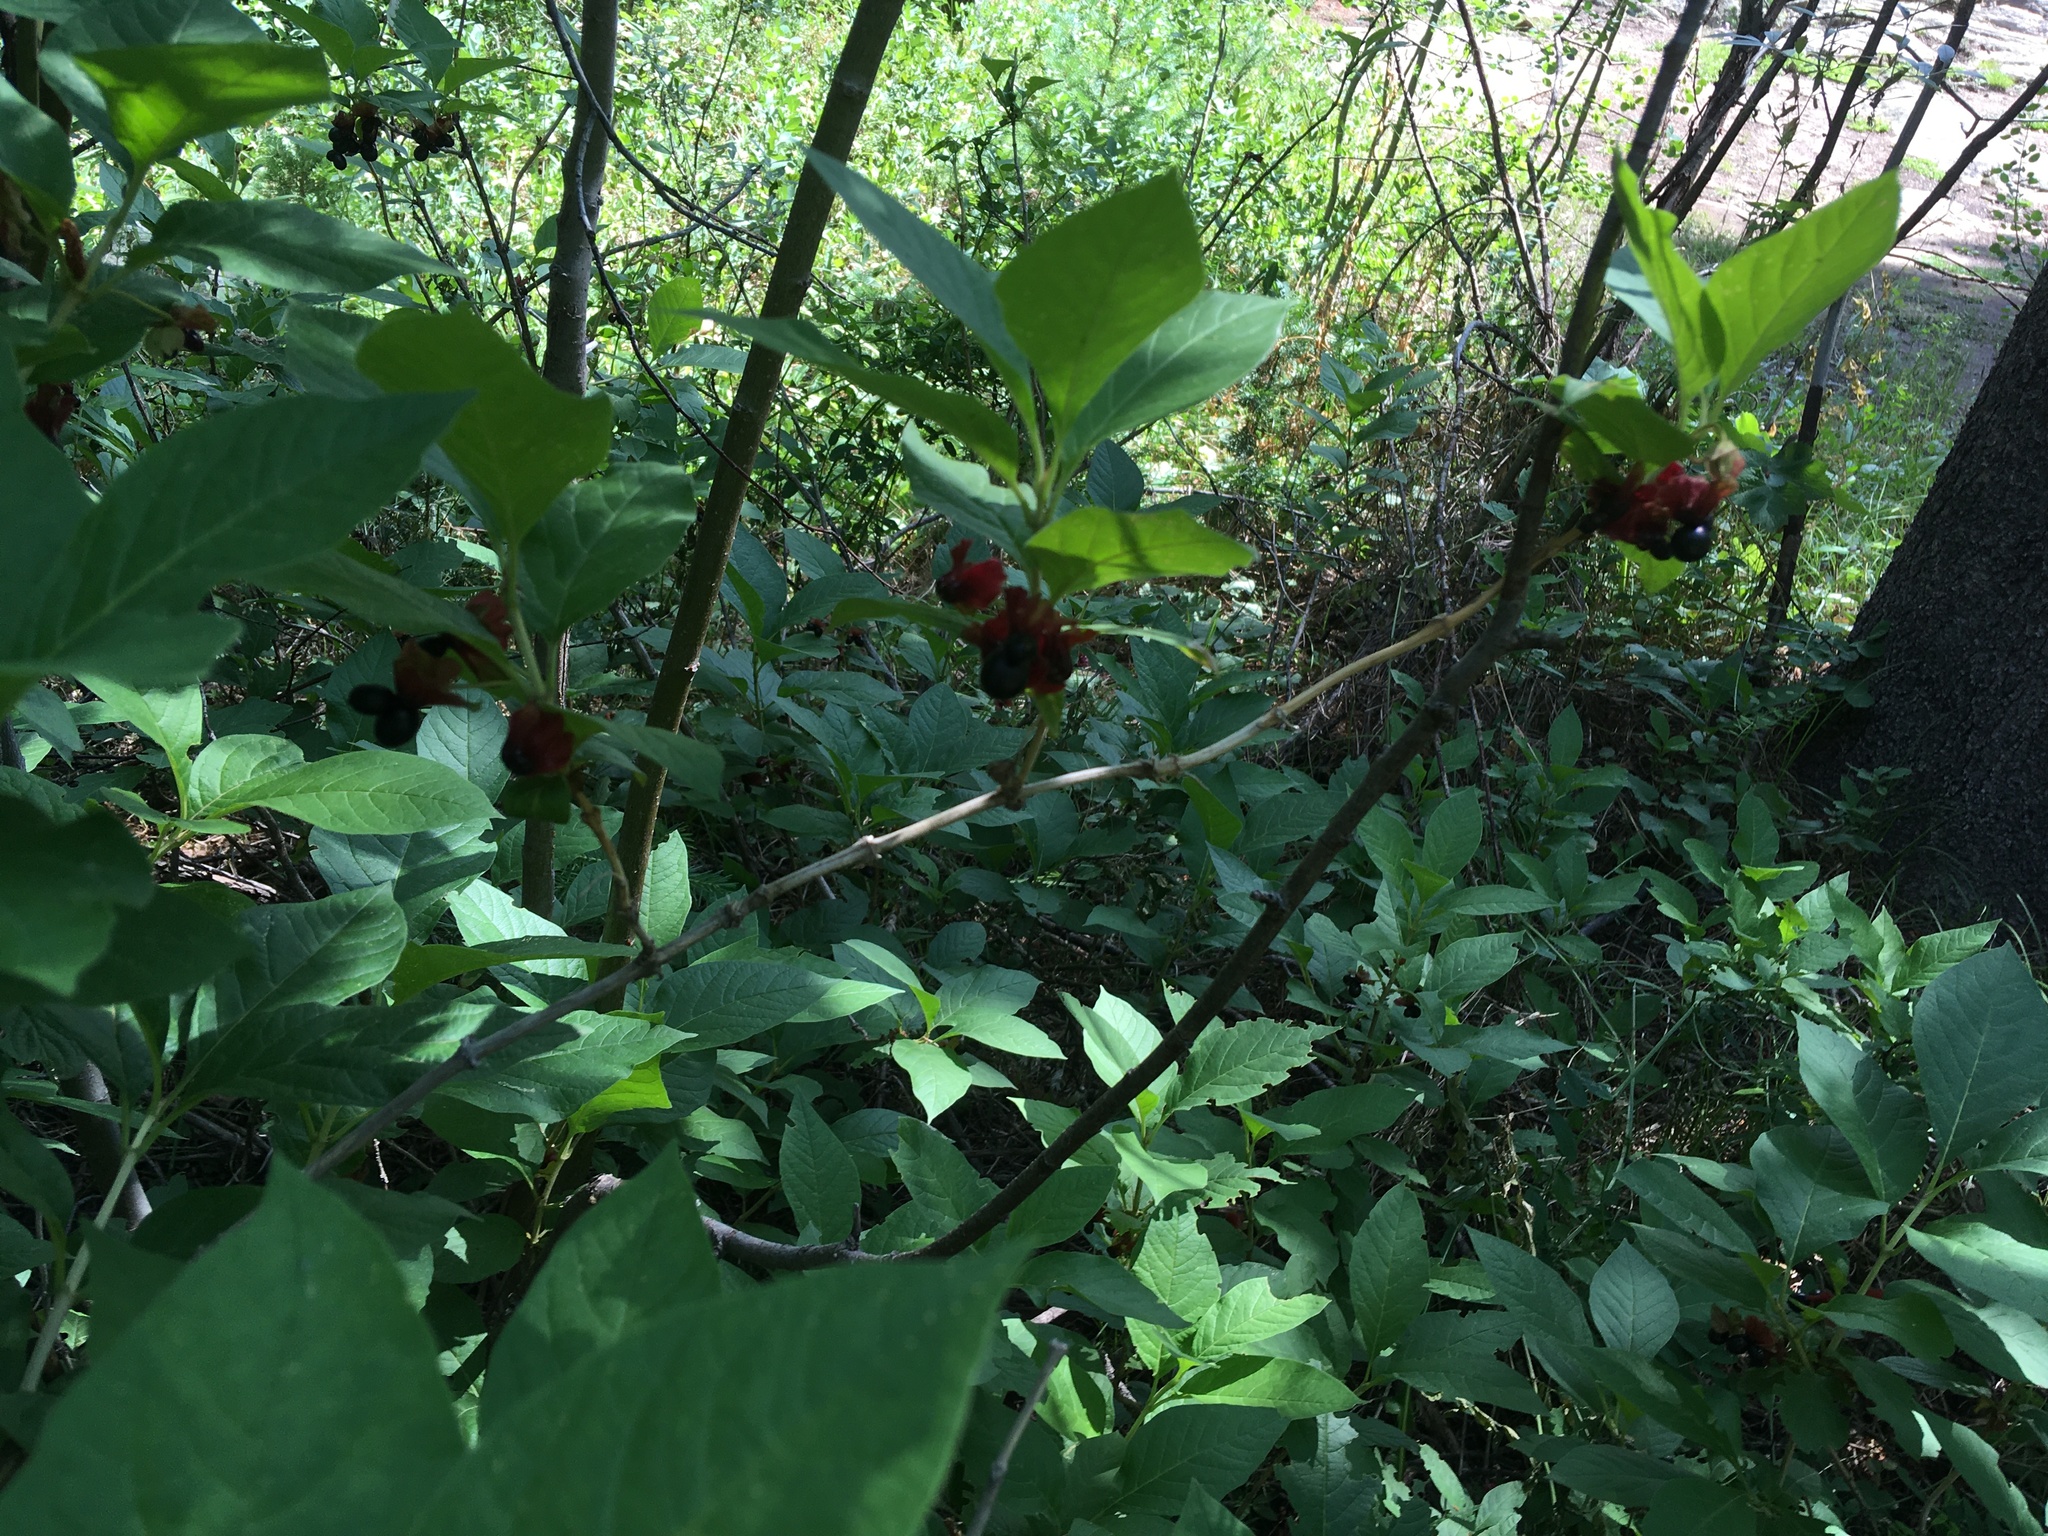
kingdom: Plantae
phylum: Tracheophyta
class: Magnoliopsida
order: Dipsacales
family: Caprifoliaceae
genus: Lonicera
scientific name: Lonicera involucrata
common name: Californian honeysuckle
